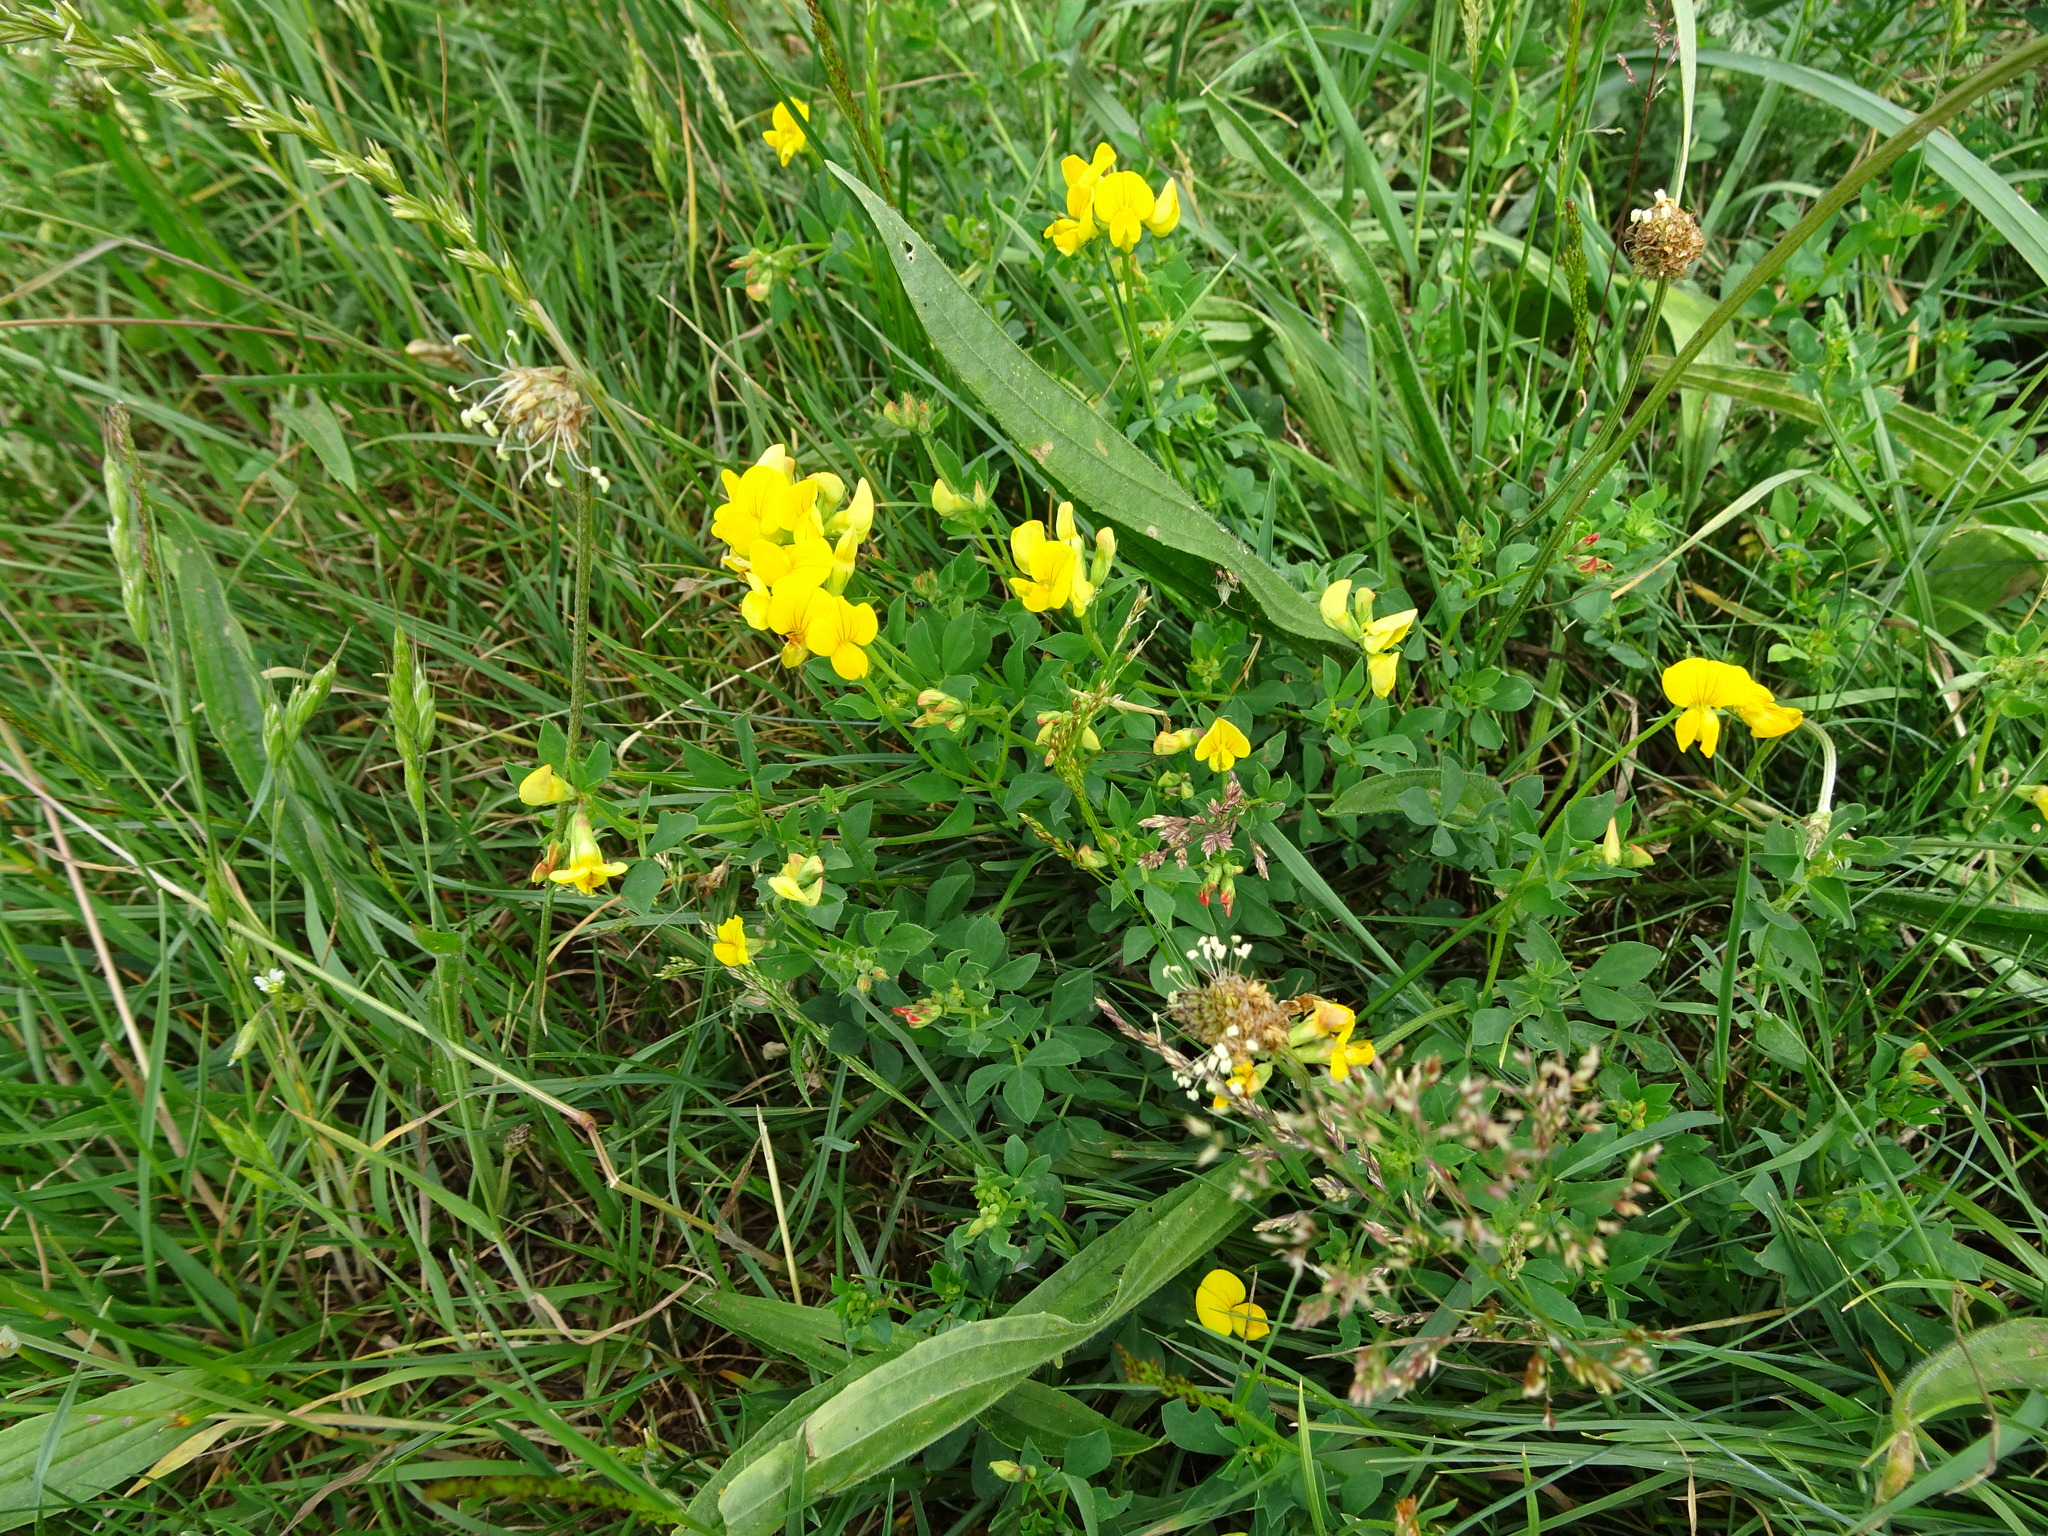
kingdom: Plantae
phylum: Tracheophyta
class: Magnoliopsida
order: Fabales
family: Fabaceae
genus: Lotus
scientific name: Lotus corniculatus
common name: Common bird's-foot-trefoil
